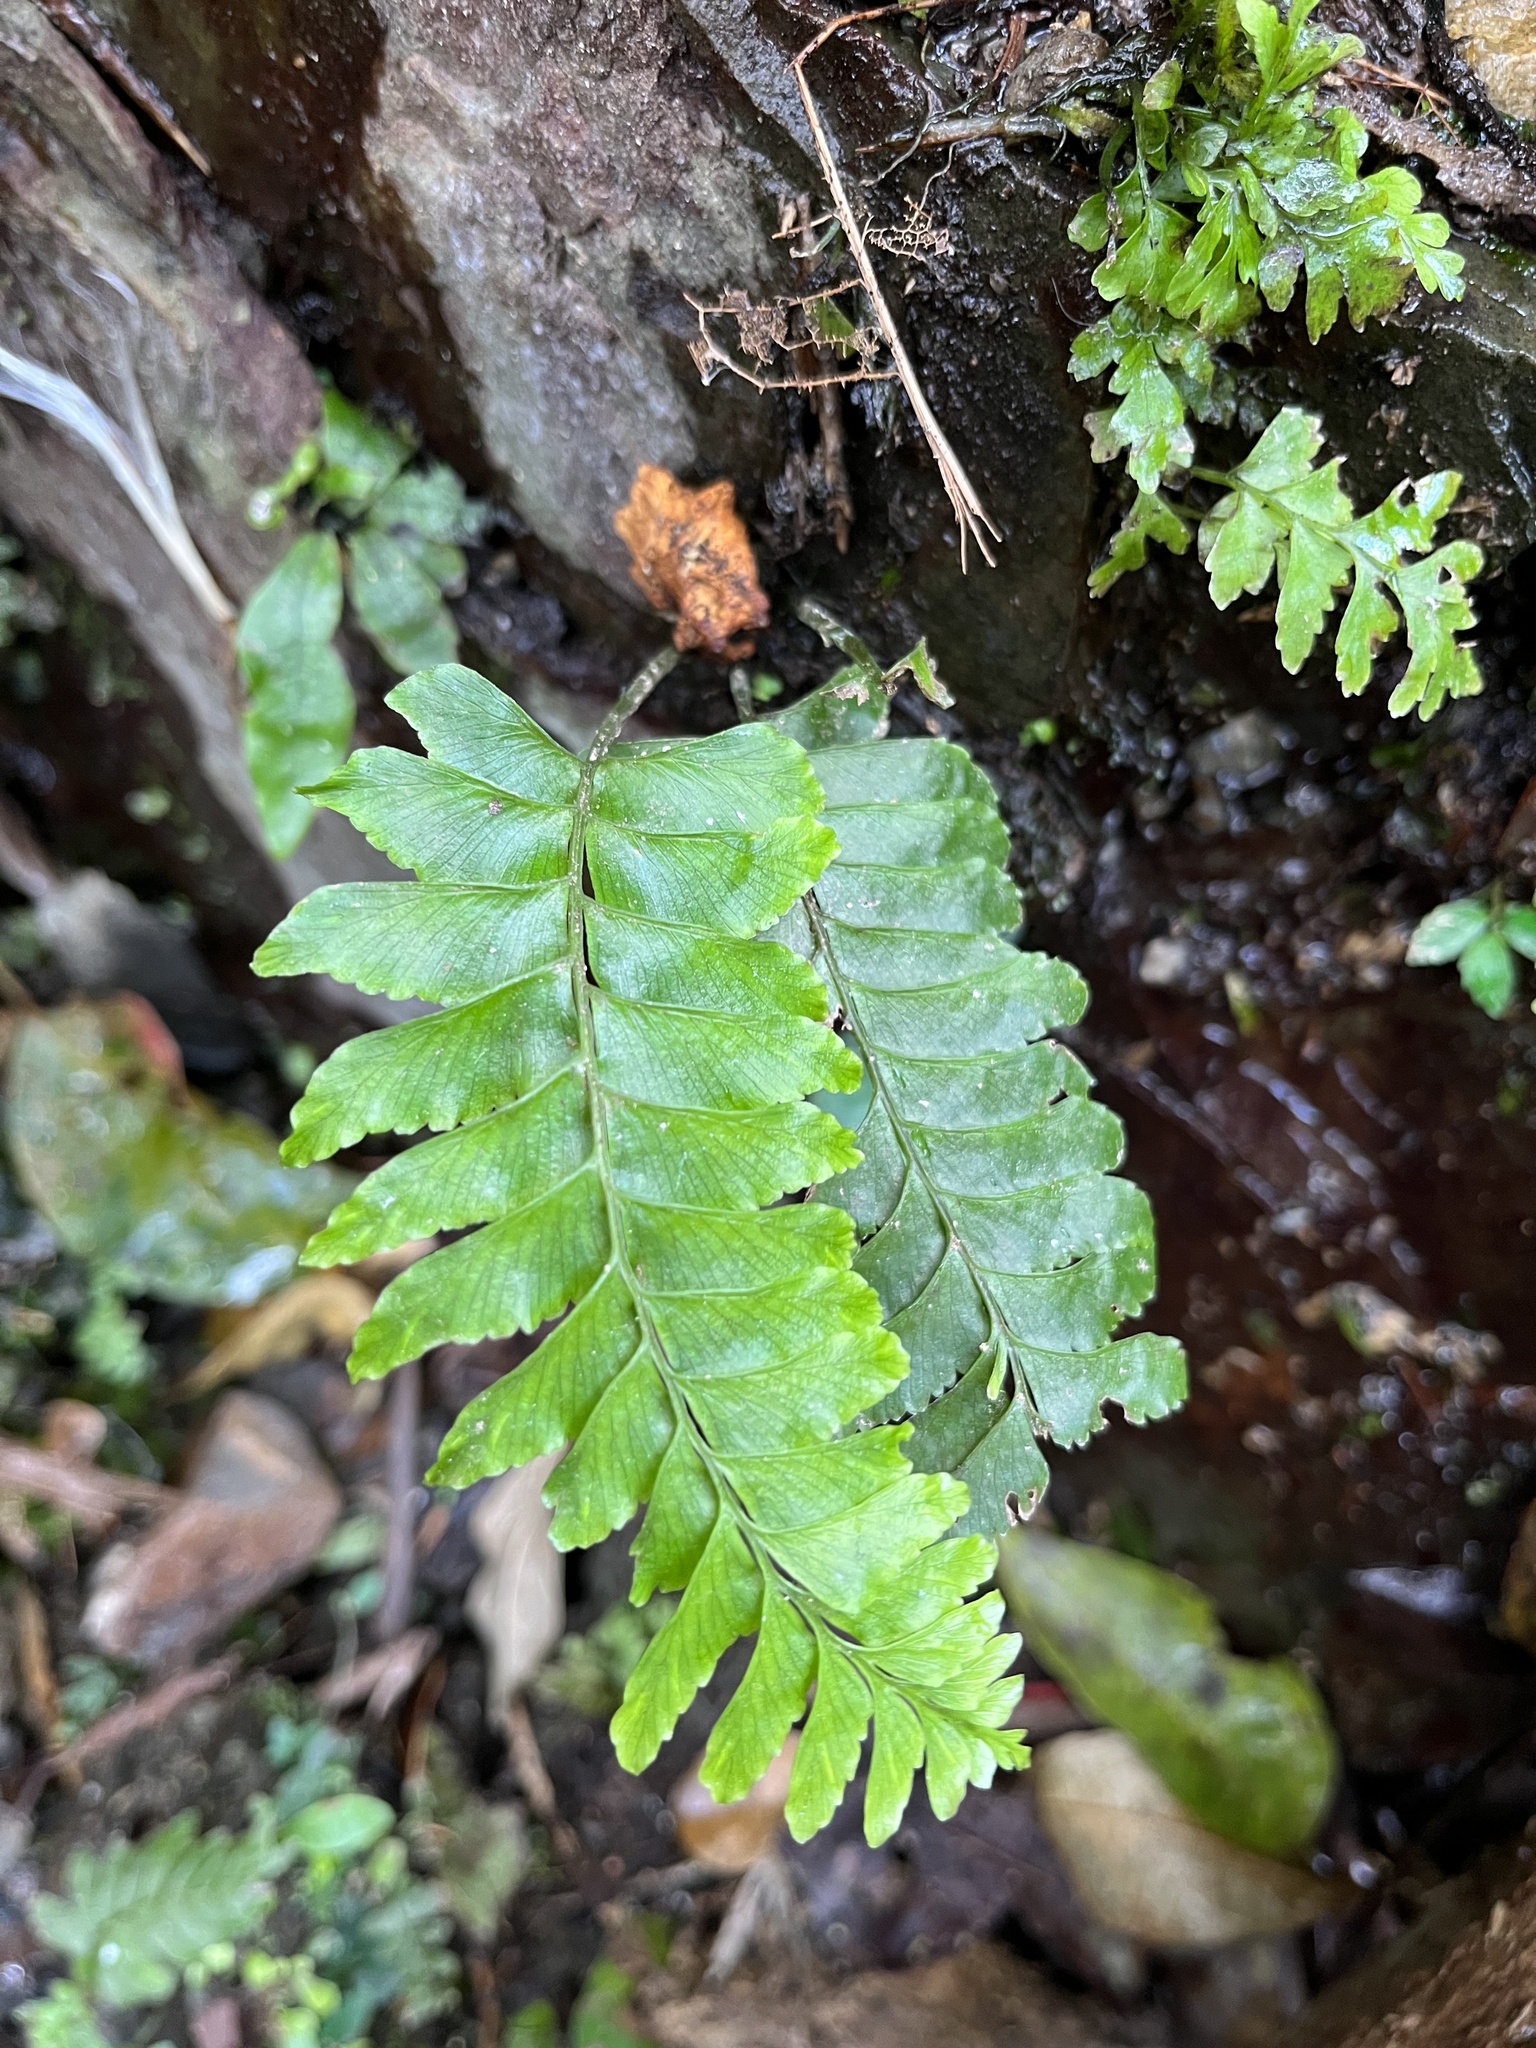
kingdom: Plantae
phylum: Tracheophyta
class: Polypodiopsida
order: Polypodiales
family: Aspleniaceae
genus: Hymenasplenium
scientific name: Hymenasplenium pseudobscurum
